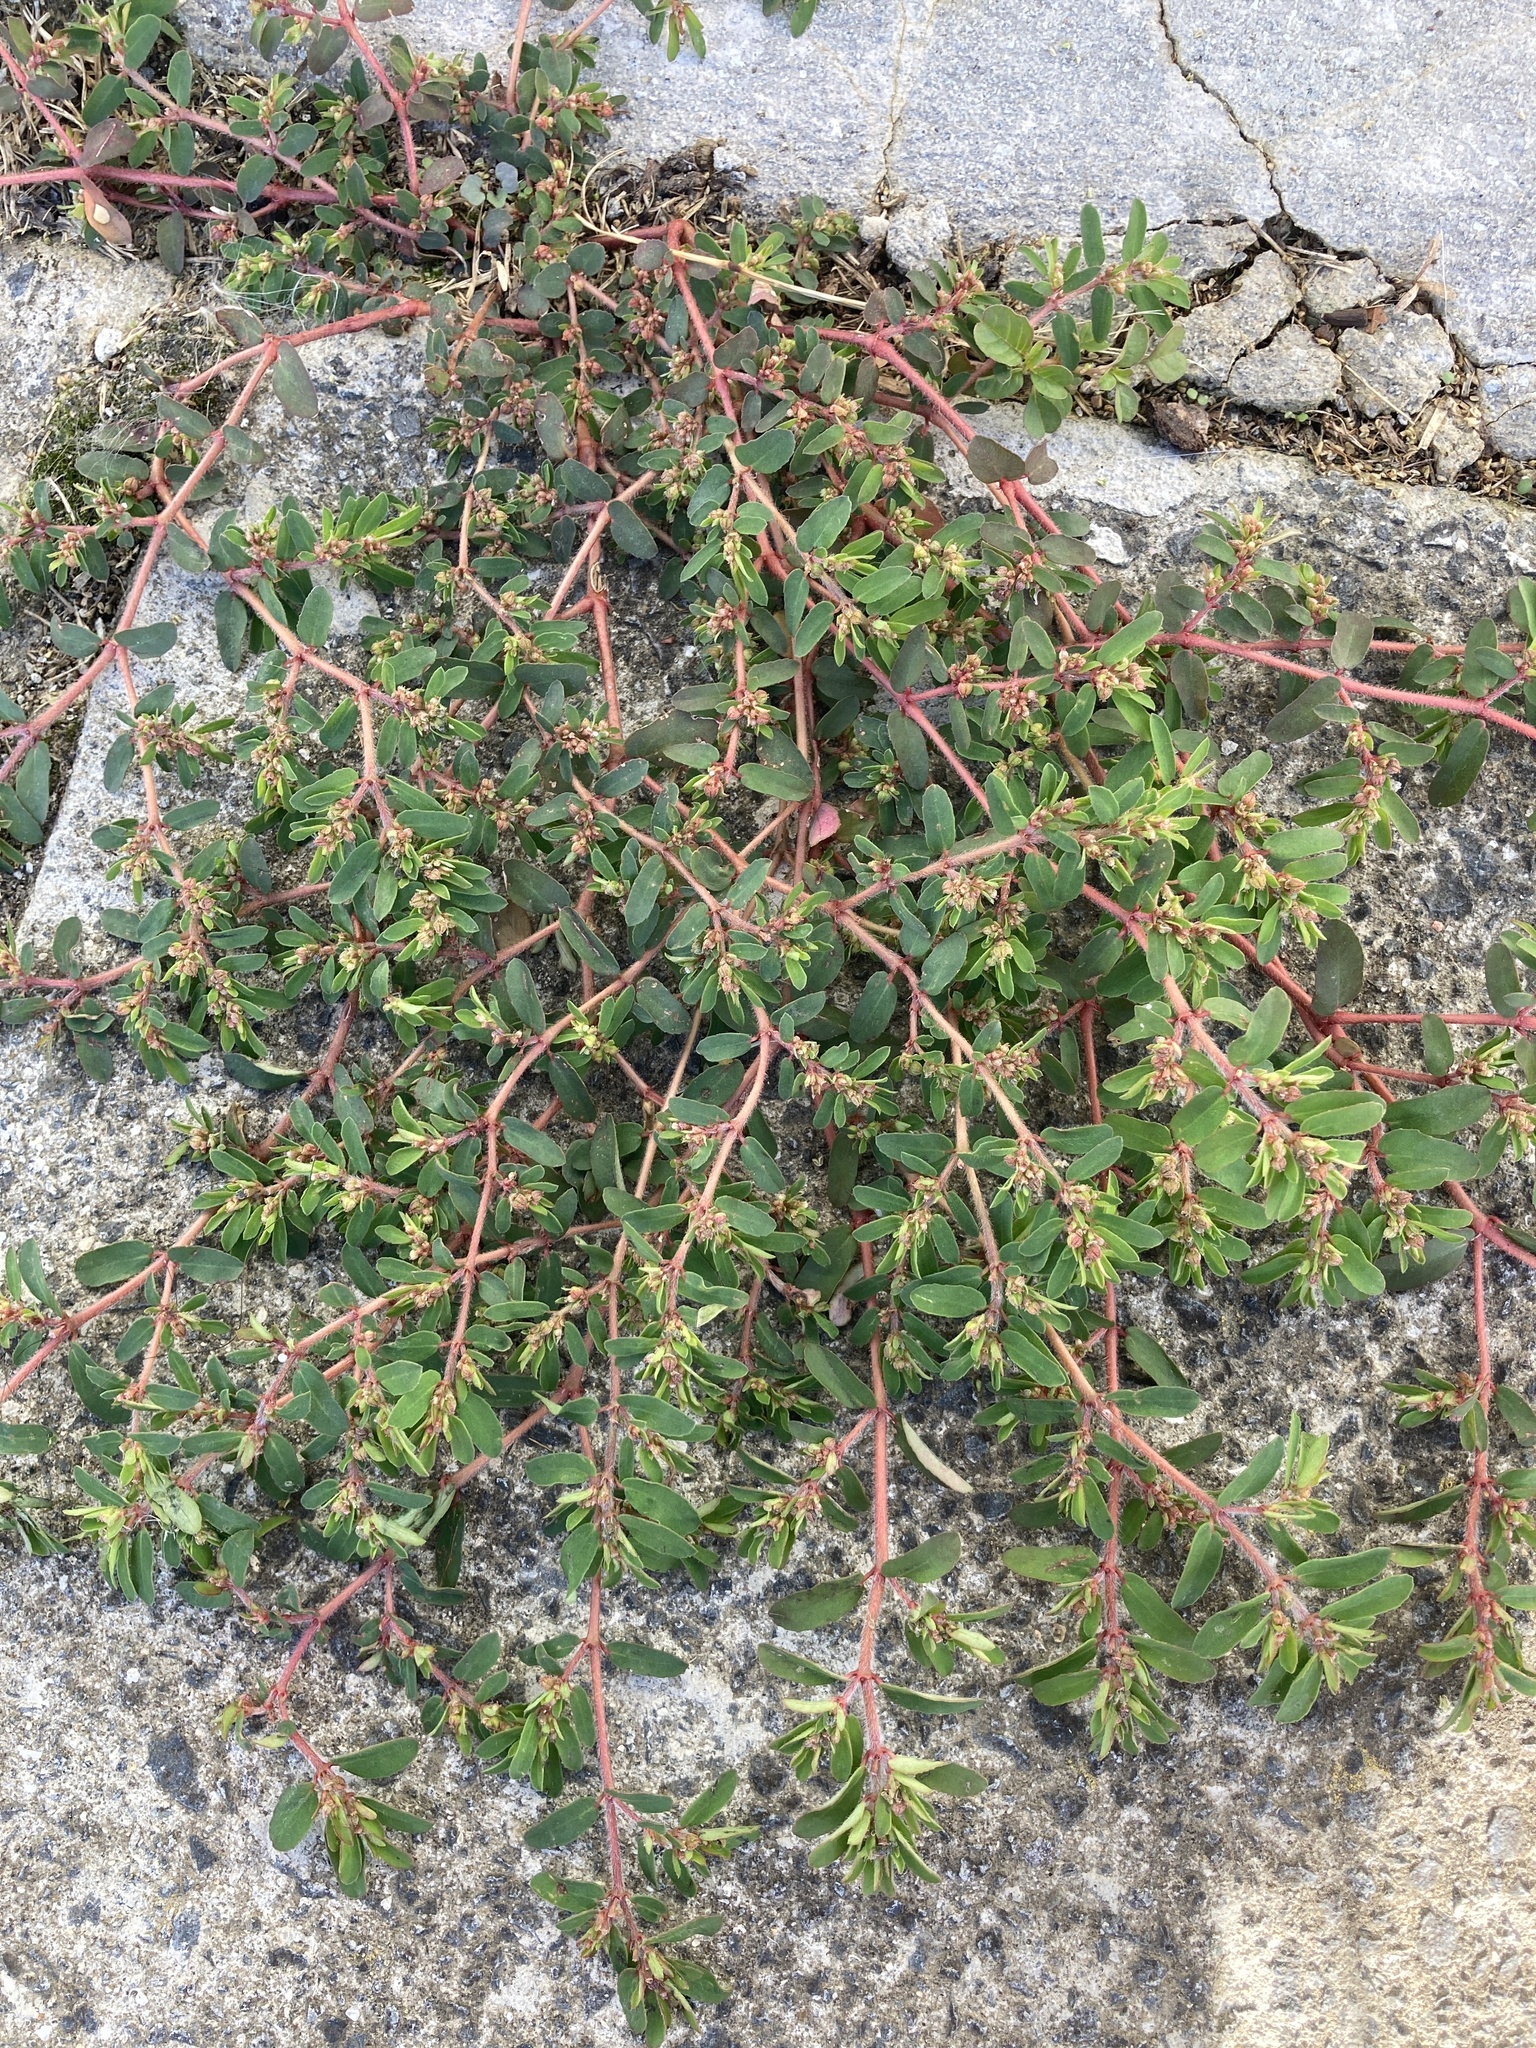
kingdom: Plantae
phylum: Tracheophyta
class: Magnoliopsida
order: Malpighiales
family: Euphorbiaceae
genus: Euphorbia
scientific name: Euphorbia maculata
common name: Spotted spurge
